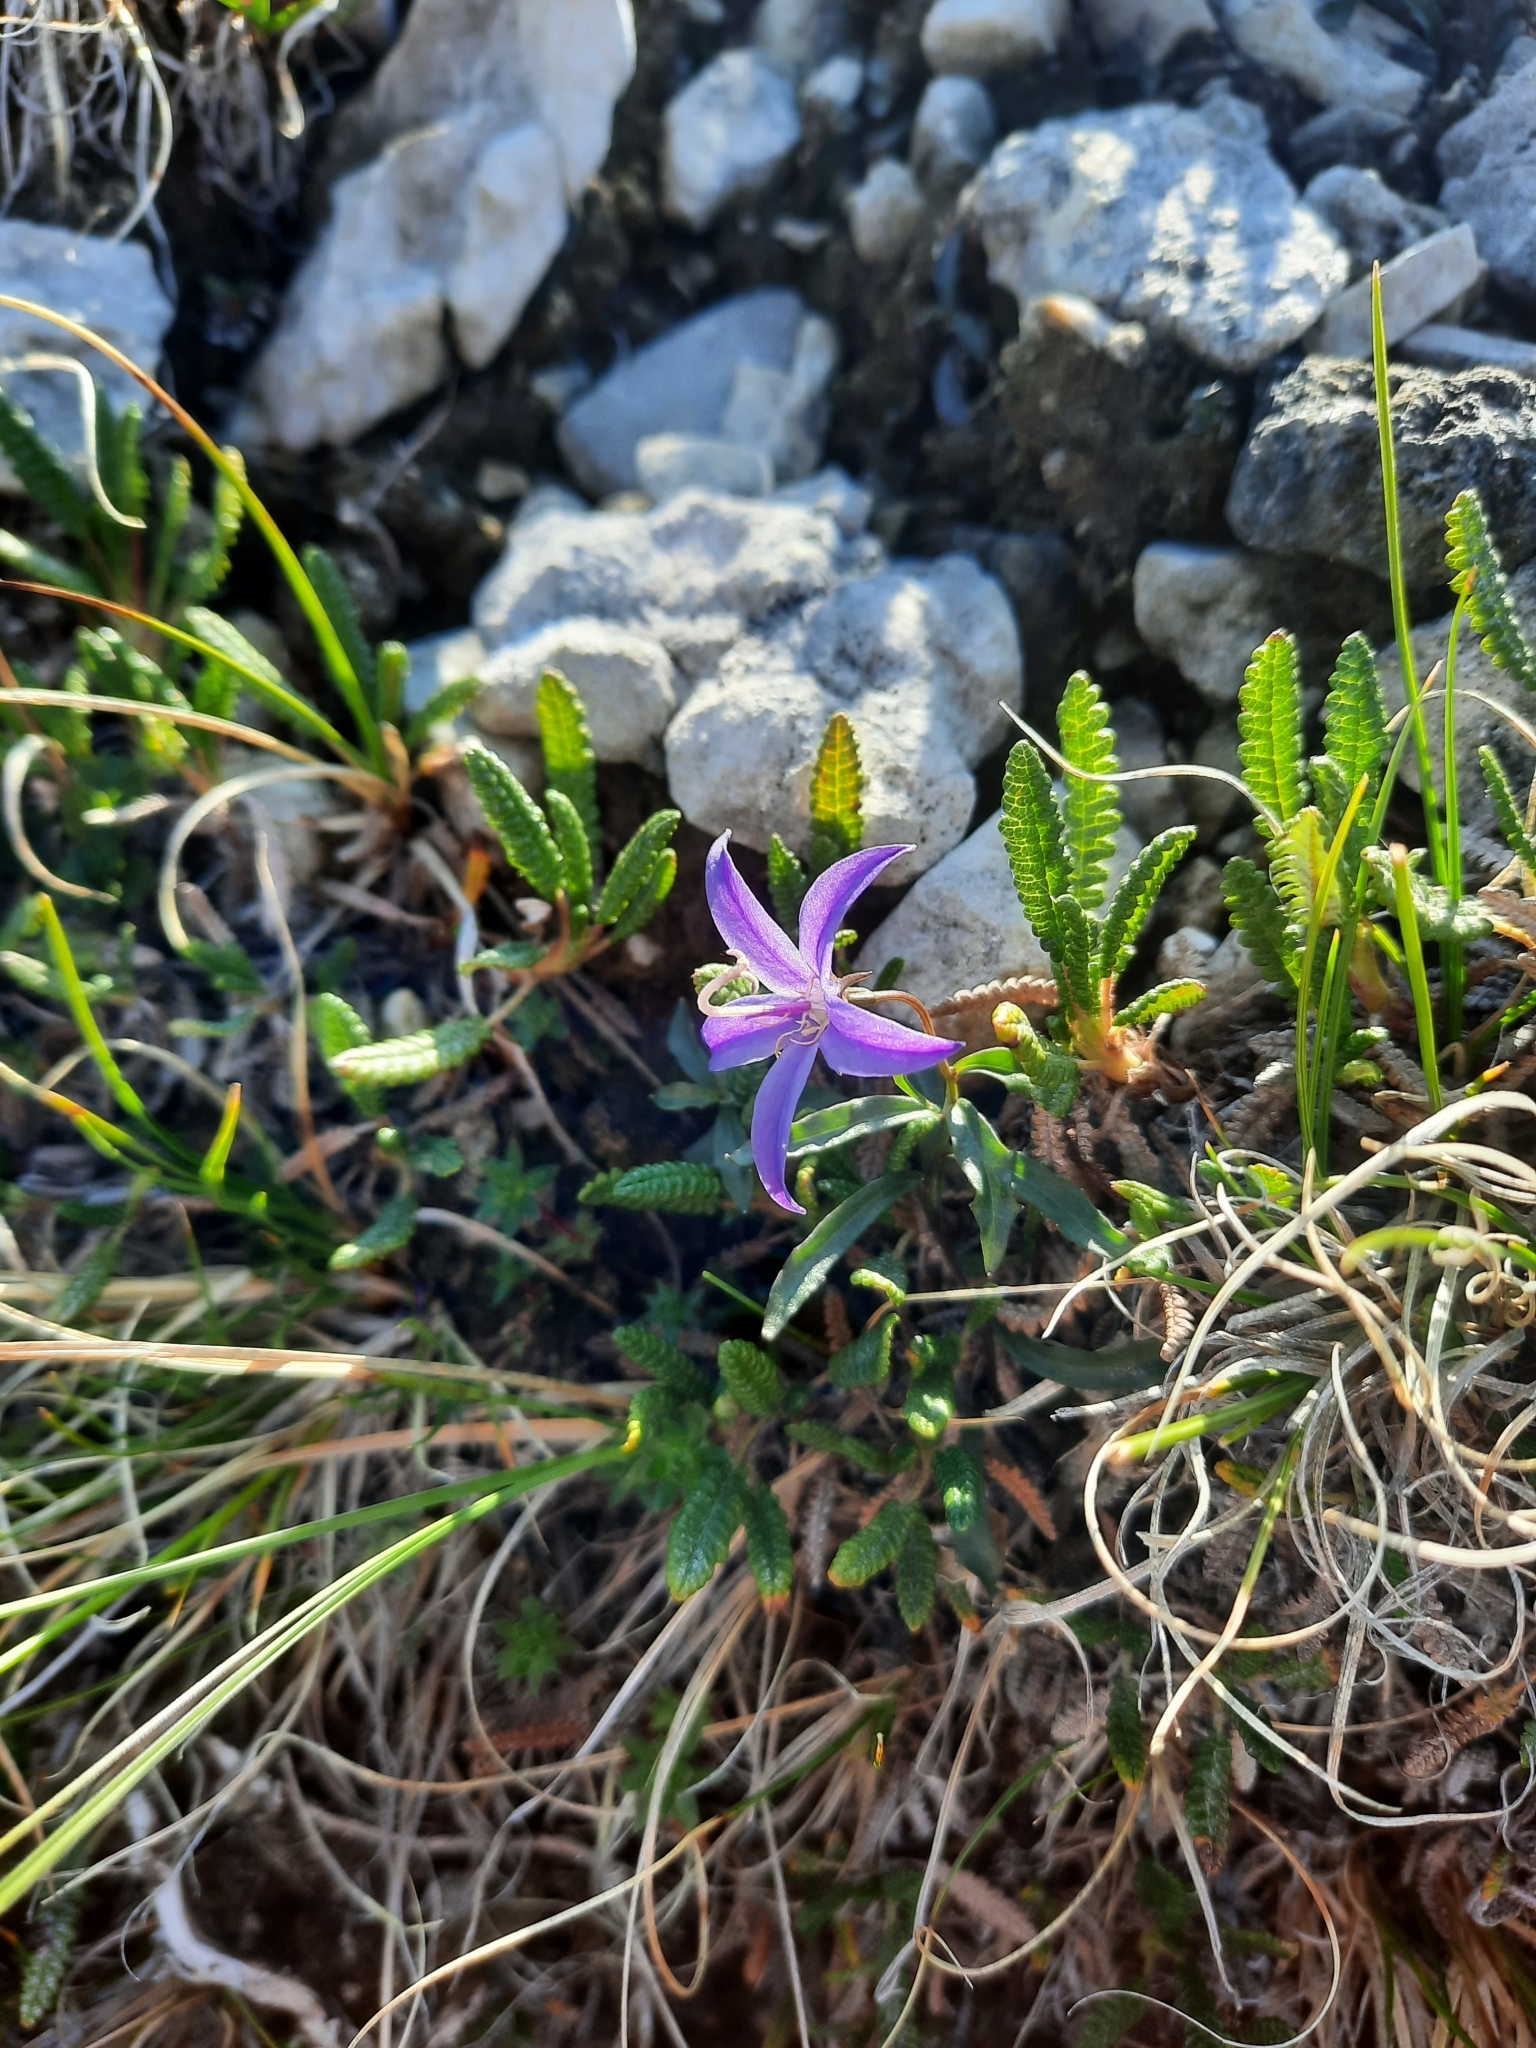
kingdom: Plantae
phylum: Tracheophyta
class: Magnoliopsida
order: Asterales
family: Campanulaceae
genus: Campanula
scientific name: Campanula aurita
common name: Yukon bellflower
